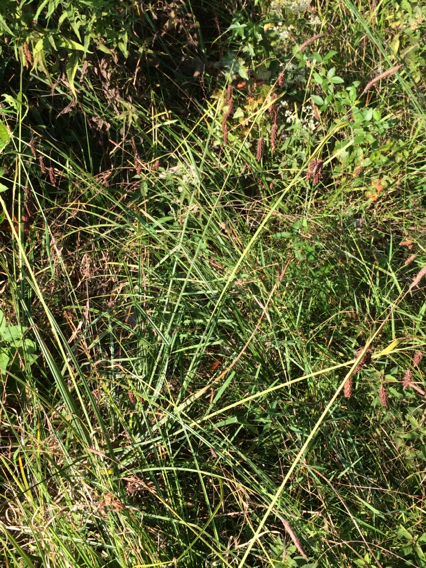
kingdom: Plantae
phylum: Tracheophyta
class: Liliopsida
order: Poales
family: Cyperaceae
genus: Carex
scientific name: Carex glaucescens
